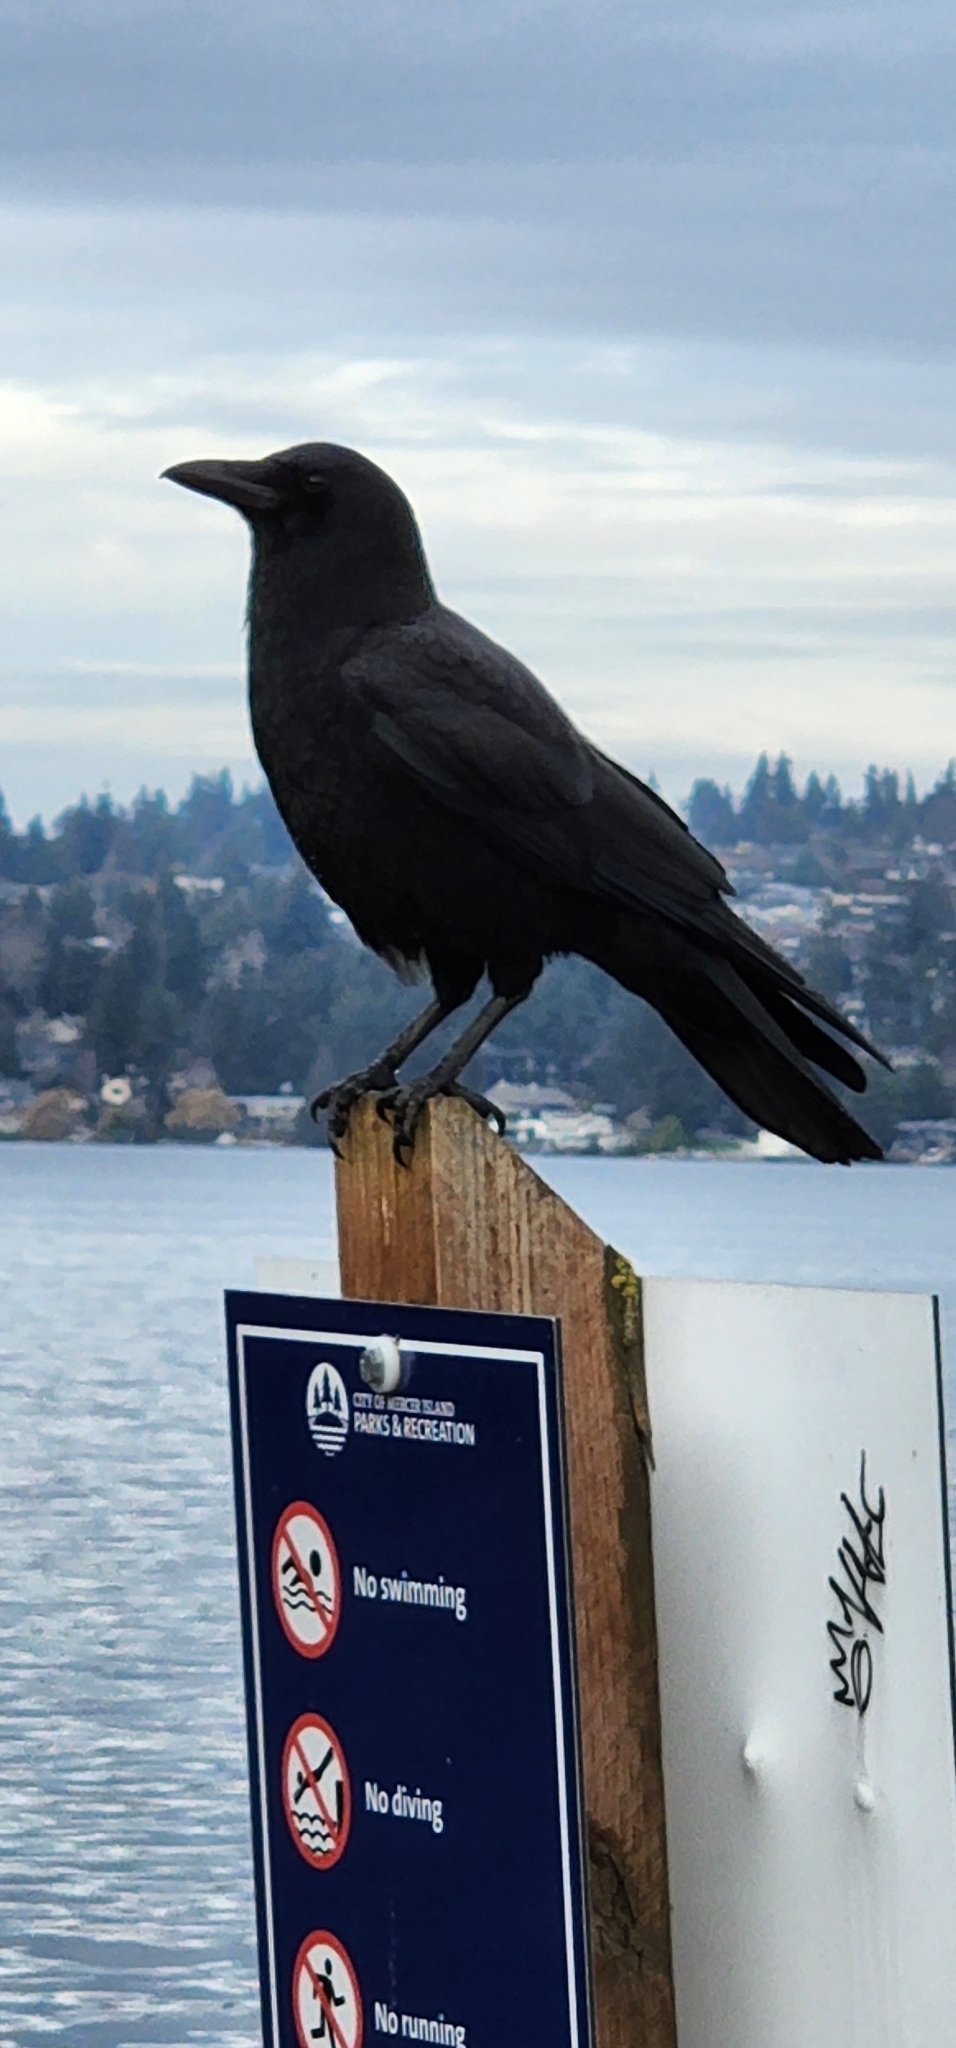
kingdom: Animalia
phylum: Chordata
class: Aves
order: Passeriformes
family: Corvidae
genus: Corvus
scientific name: Corvus brachyrhynchos
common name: American crow
